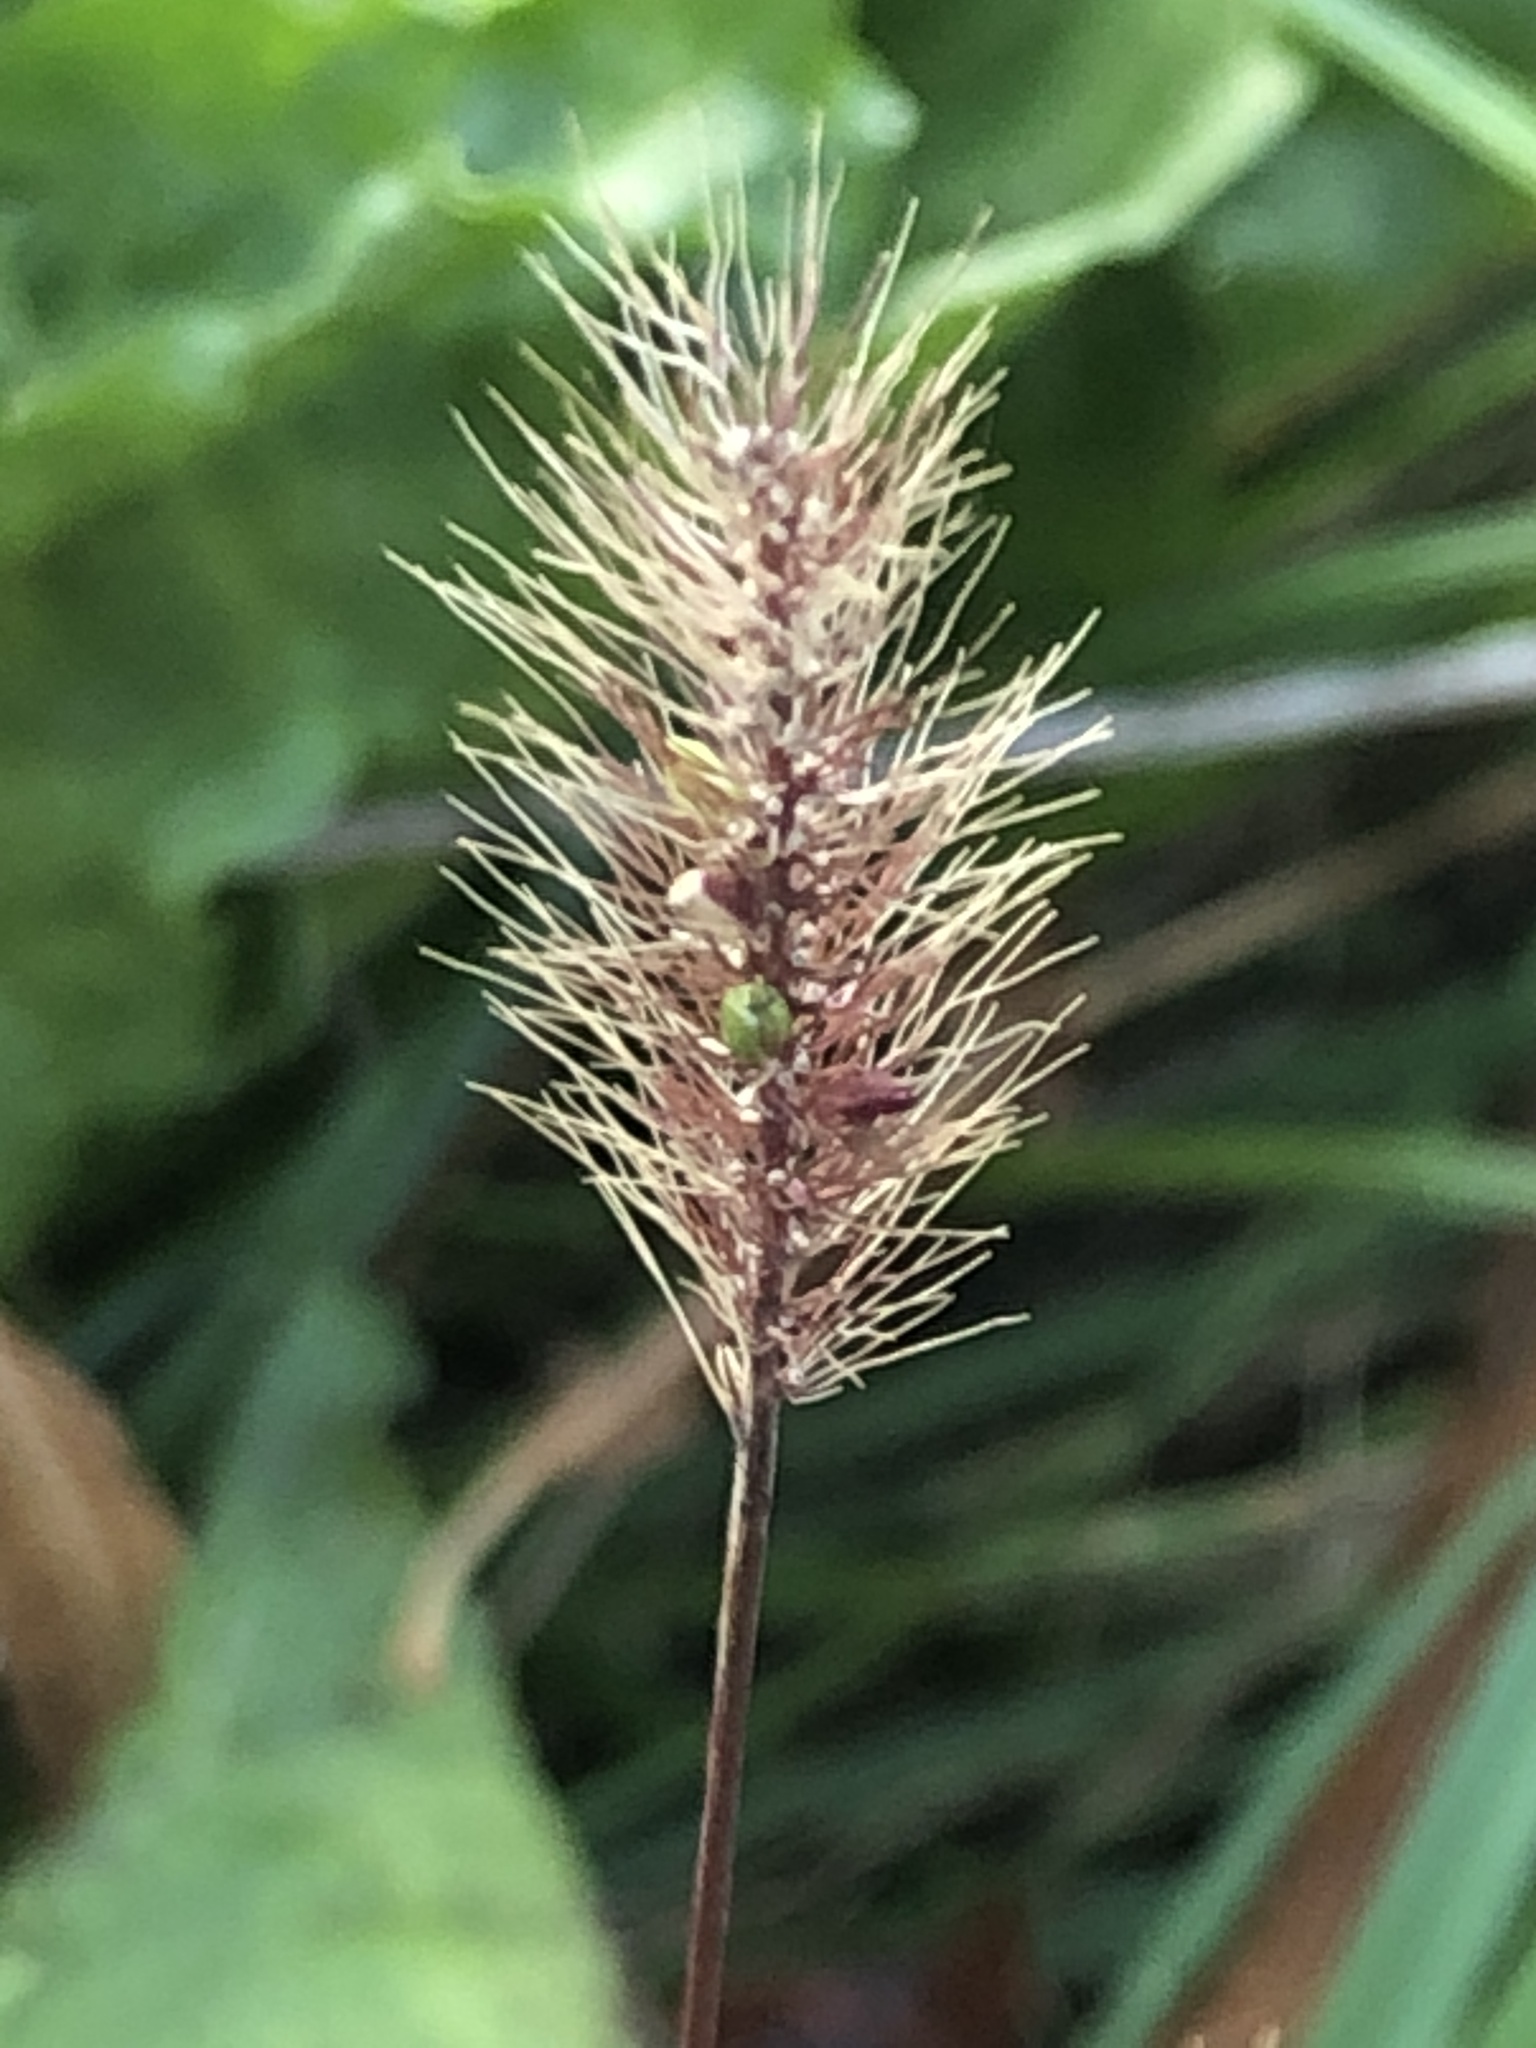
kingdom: Plantae
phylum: Tracheophyta
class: Liliopsida
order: Poales
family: Poaceae
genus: Setaria
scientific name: Setaria viridis
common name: Green bristlegrass
